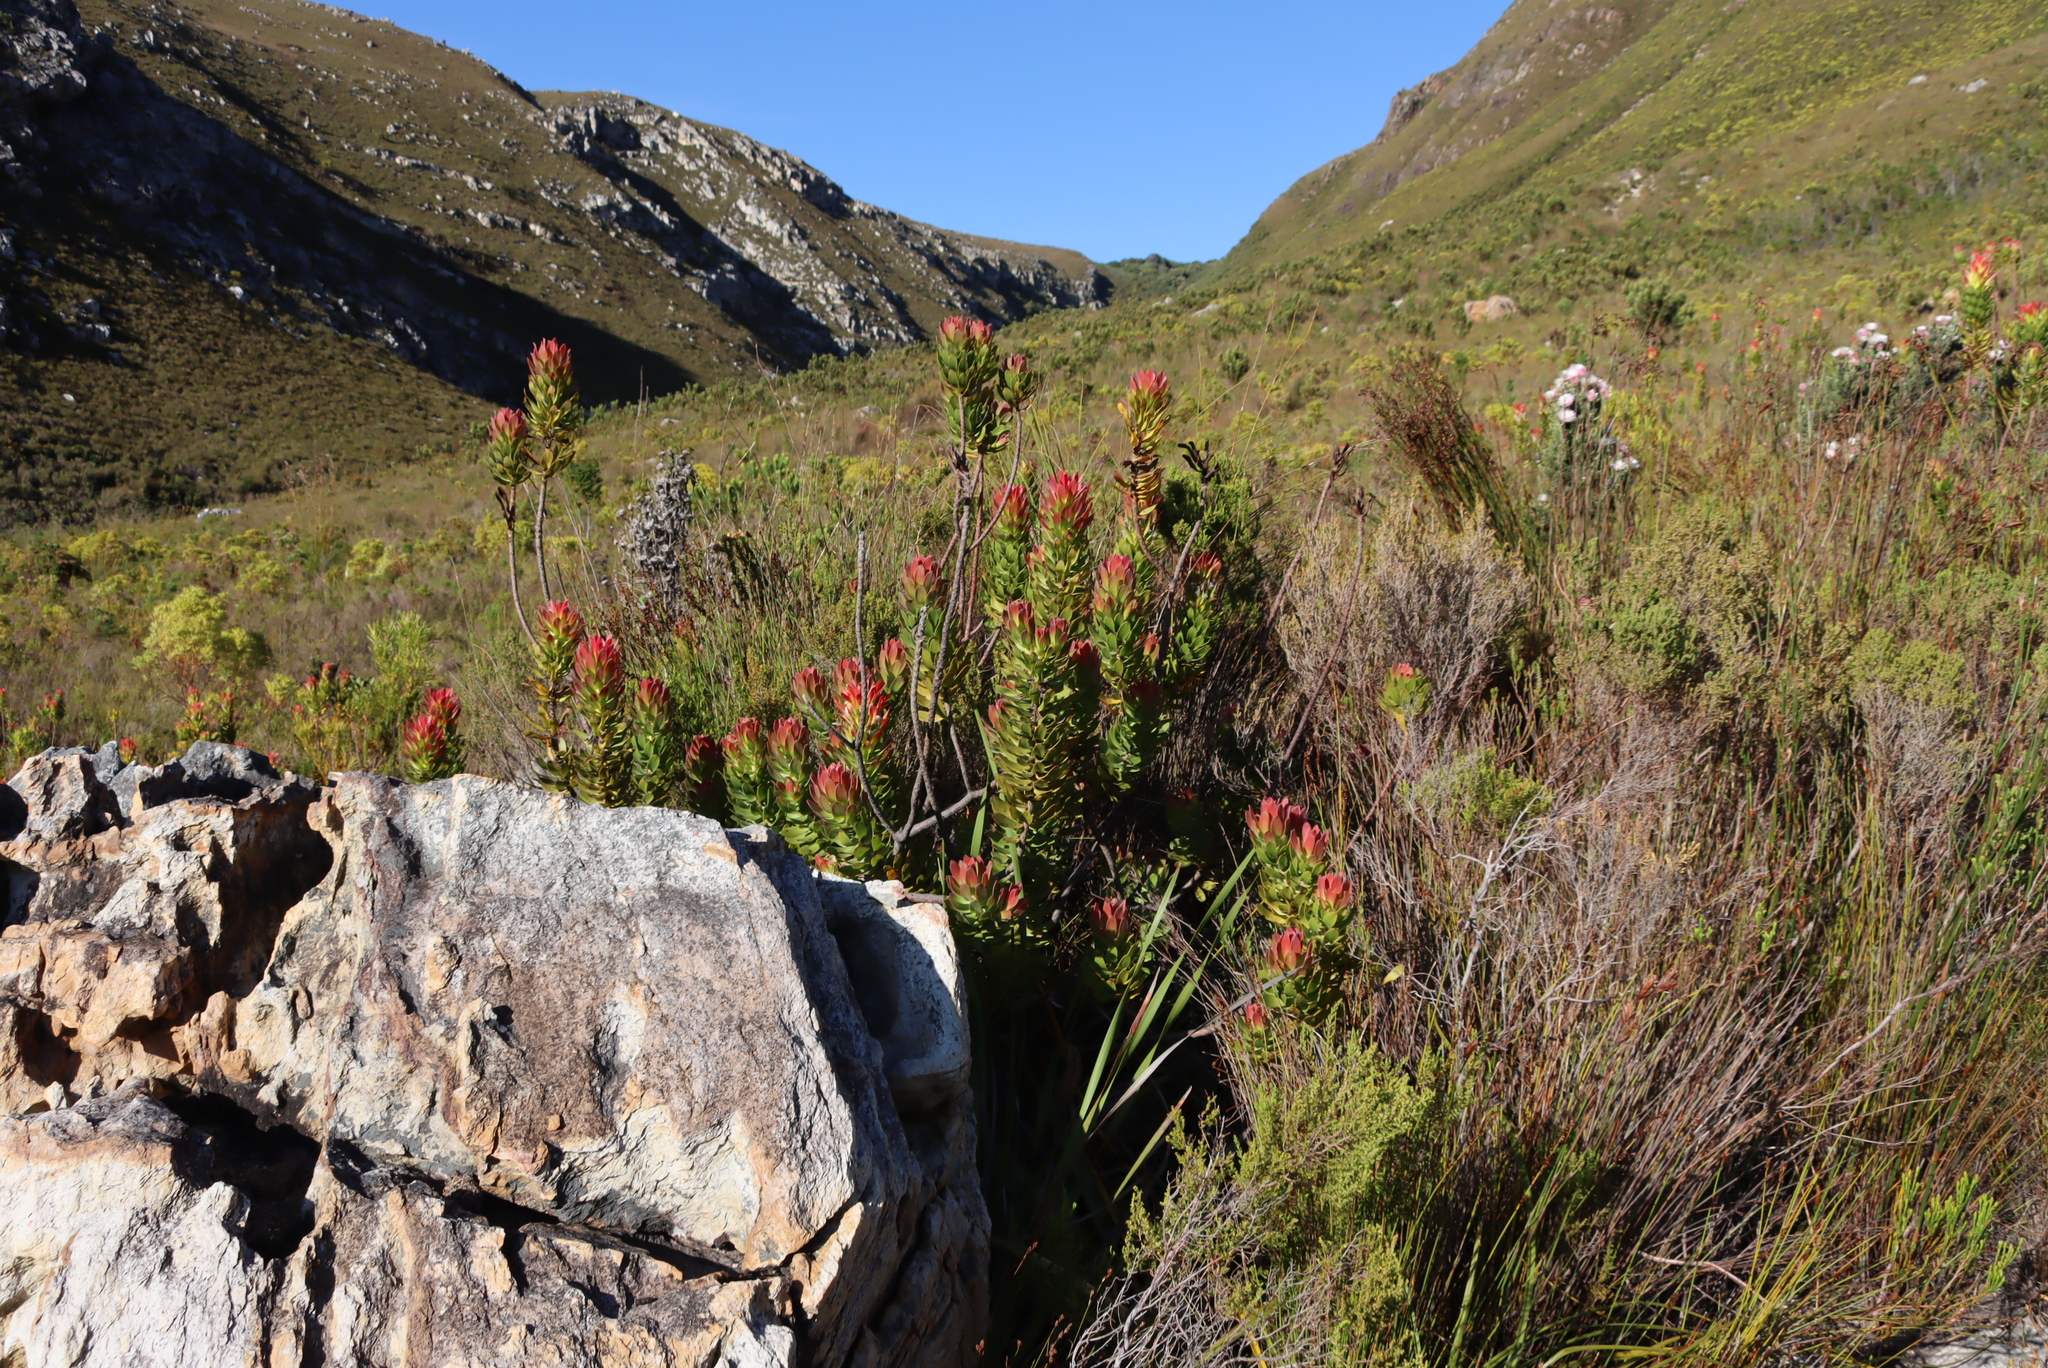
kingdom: Plantae
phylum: Tracheophyta
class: Magnoliopsida
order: Proteales
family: Proteaceae
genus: Mimetes
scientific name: Mimetes cucullatus
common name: Common pagoda
